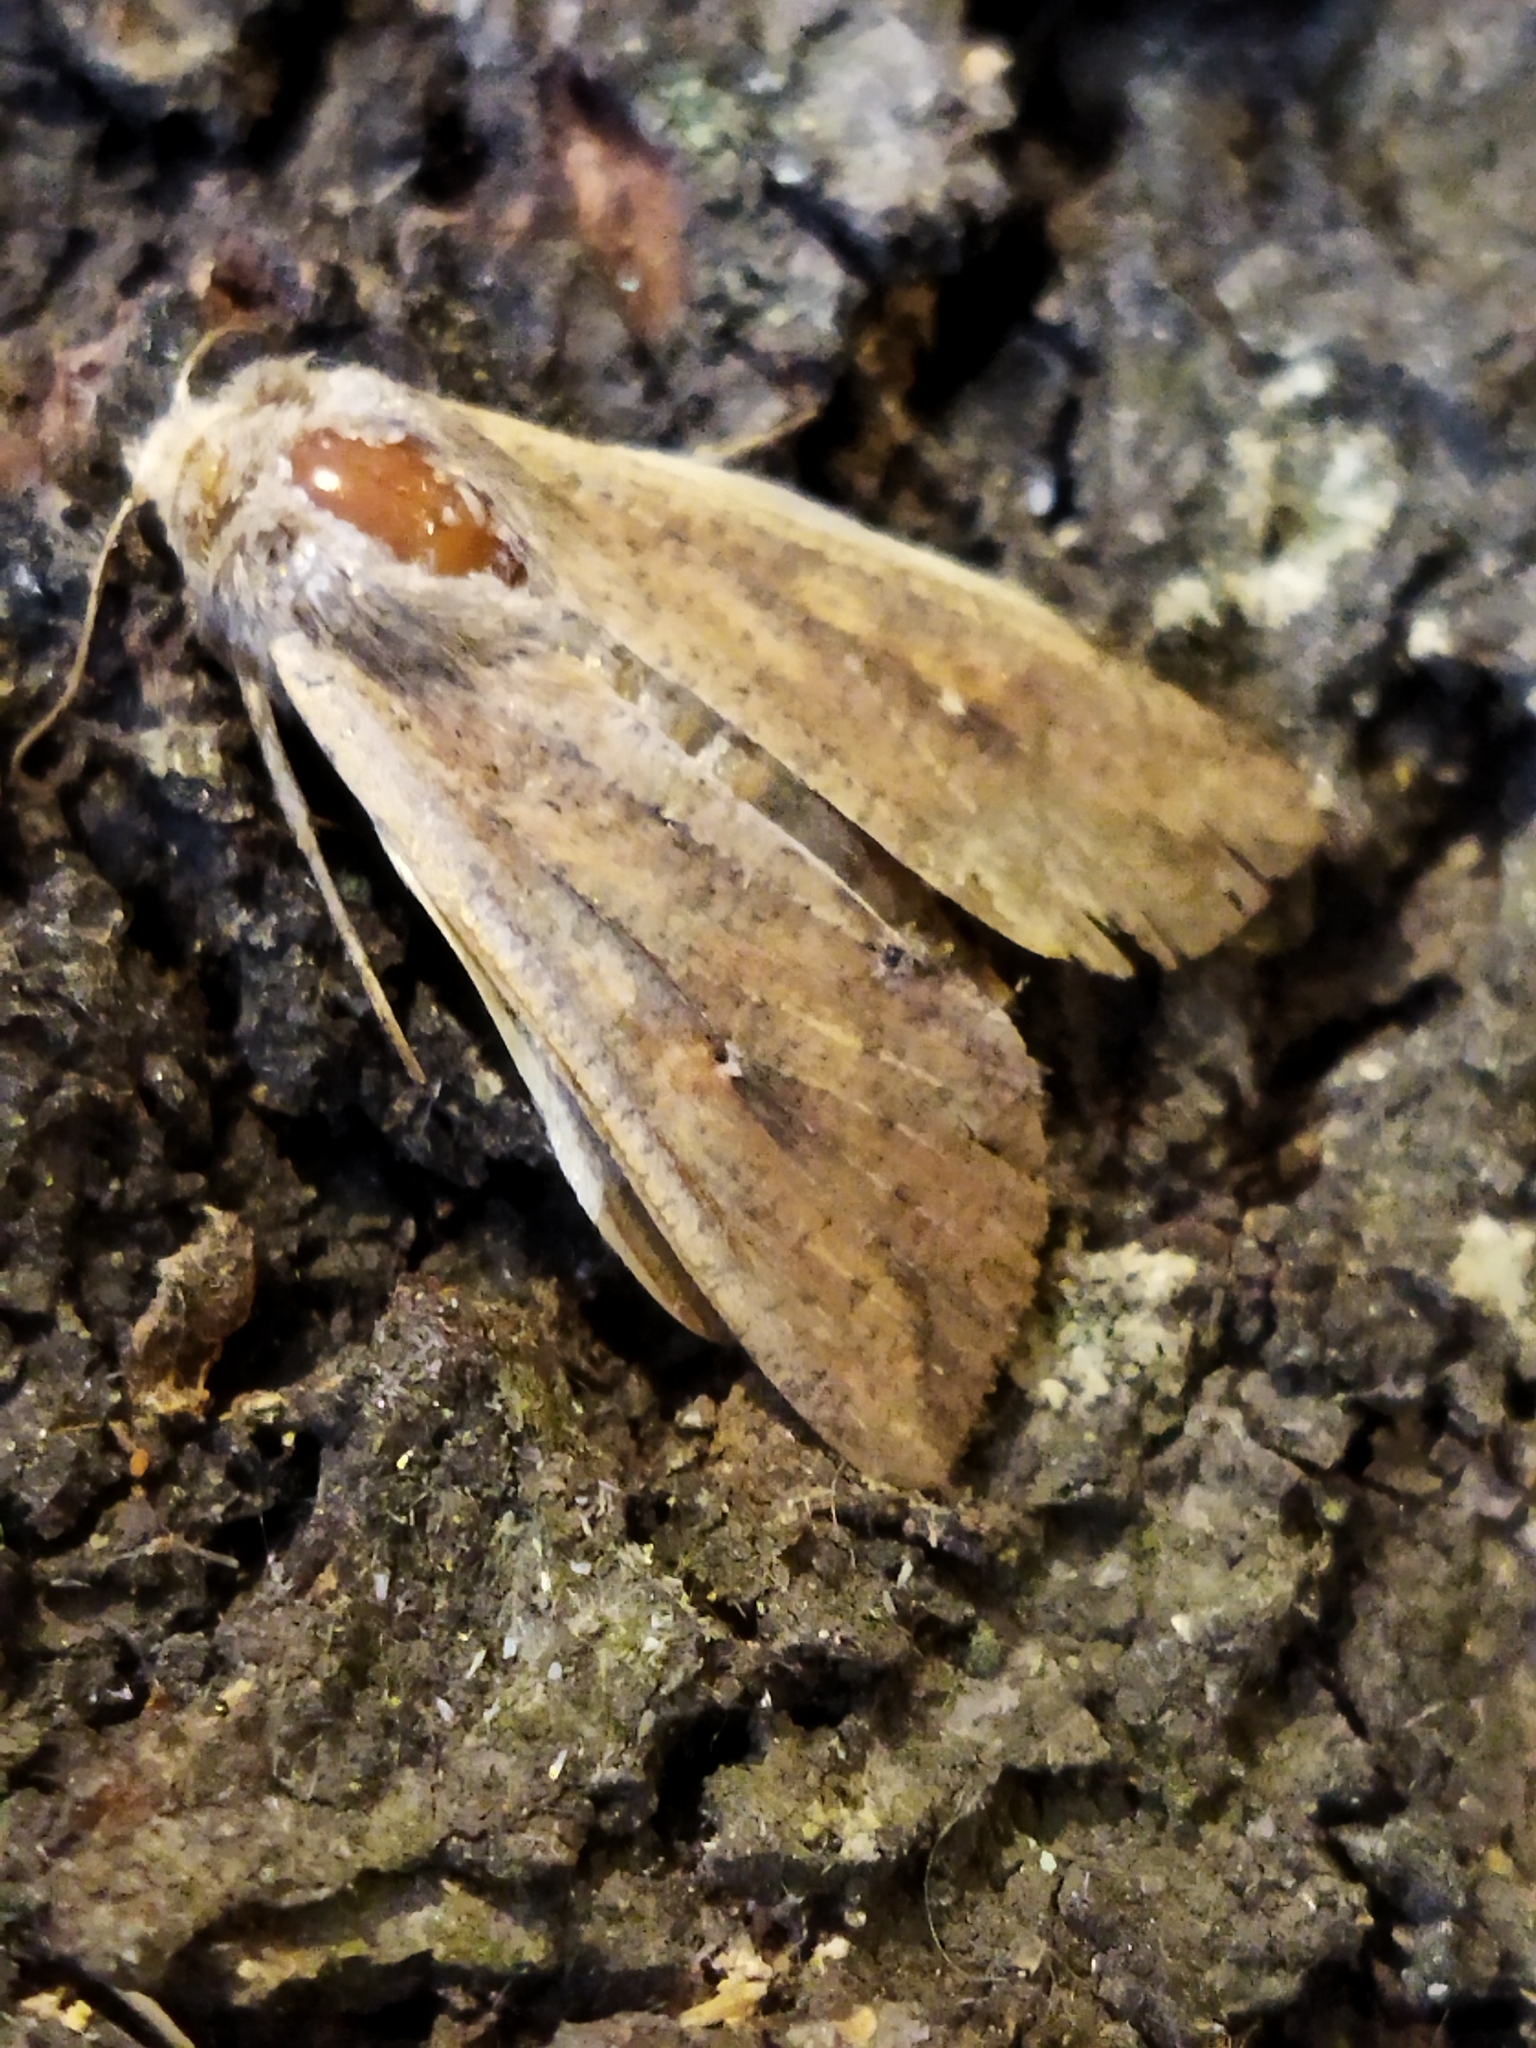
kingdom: Animalia
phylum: Arthropoda
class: Insecta
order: Lepidoptera
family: Noctuidae
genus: Mythimna
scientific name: Mythimna unipuncta
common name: White-speck
